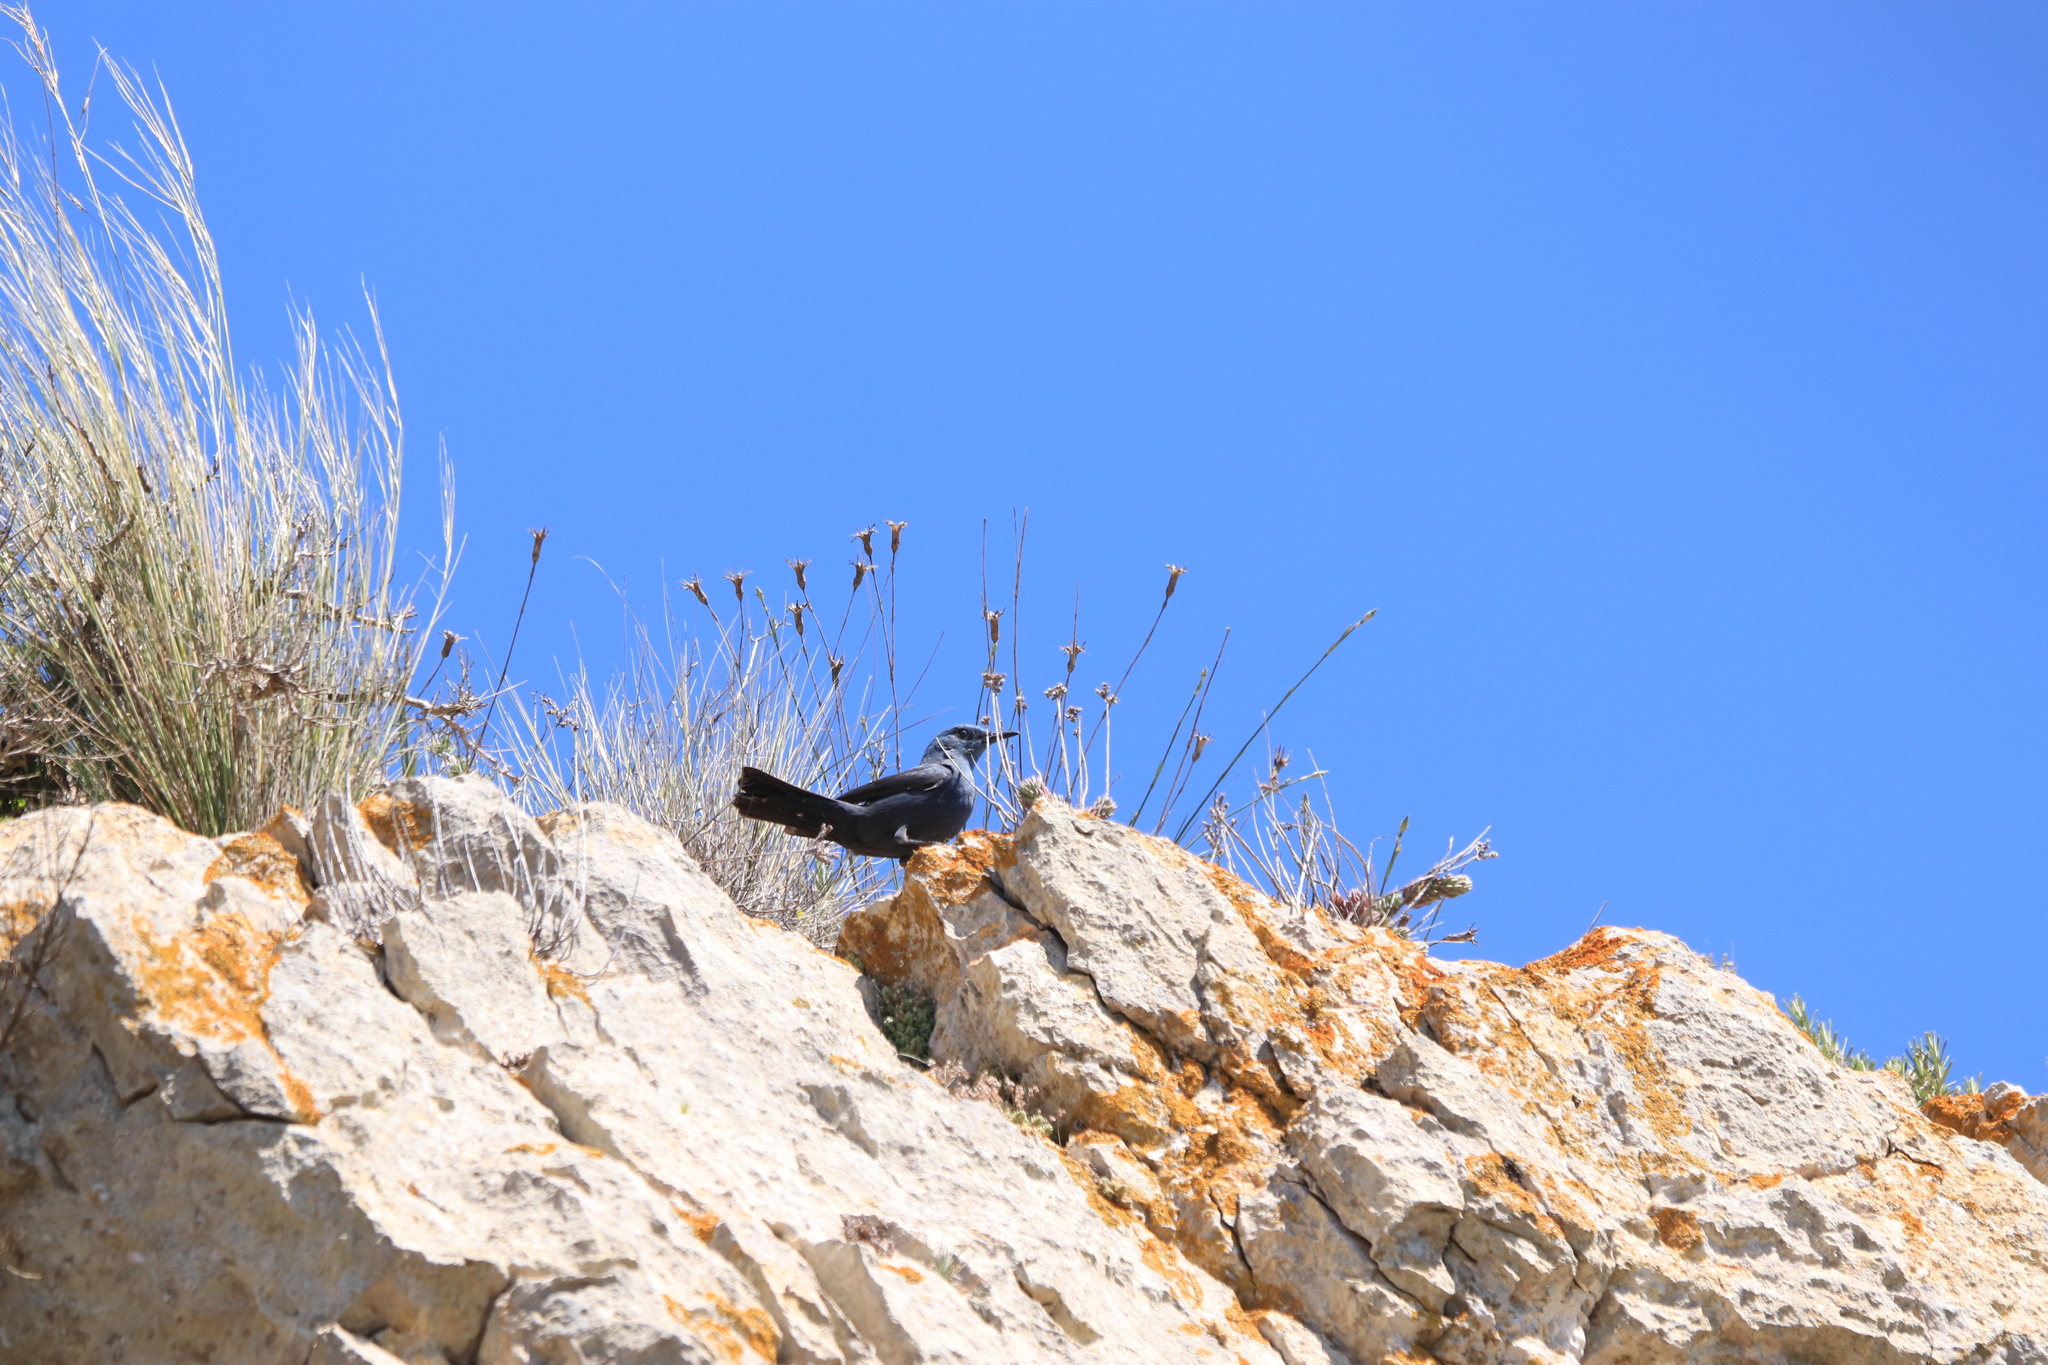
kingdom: Animalia
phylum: Chordata
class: Aves
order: Passeriformes
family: Muscicapidae
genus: Monticola
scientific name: Monticola solitarius
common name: Blue rock thrush
